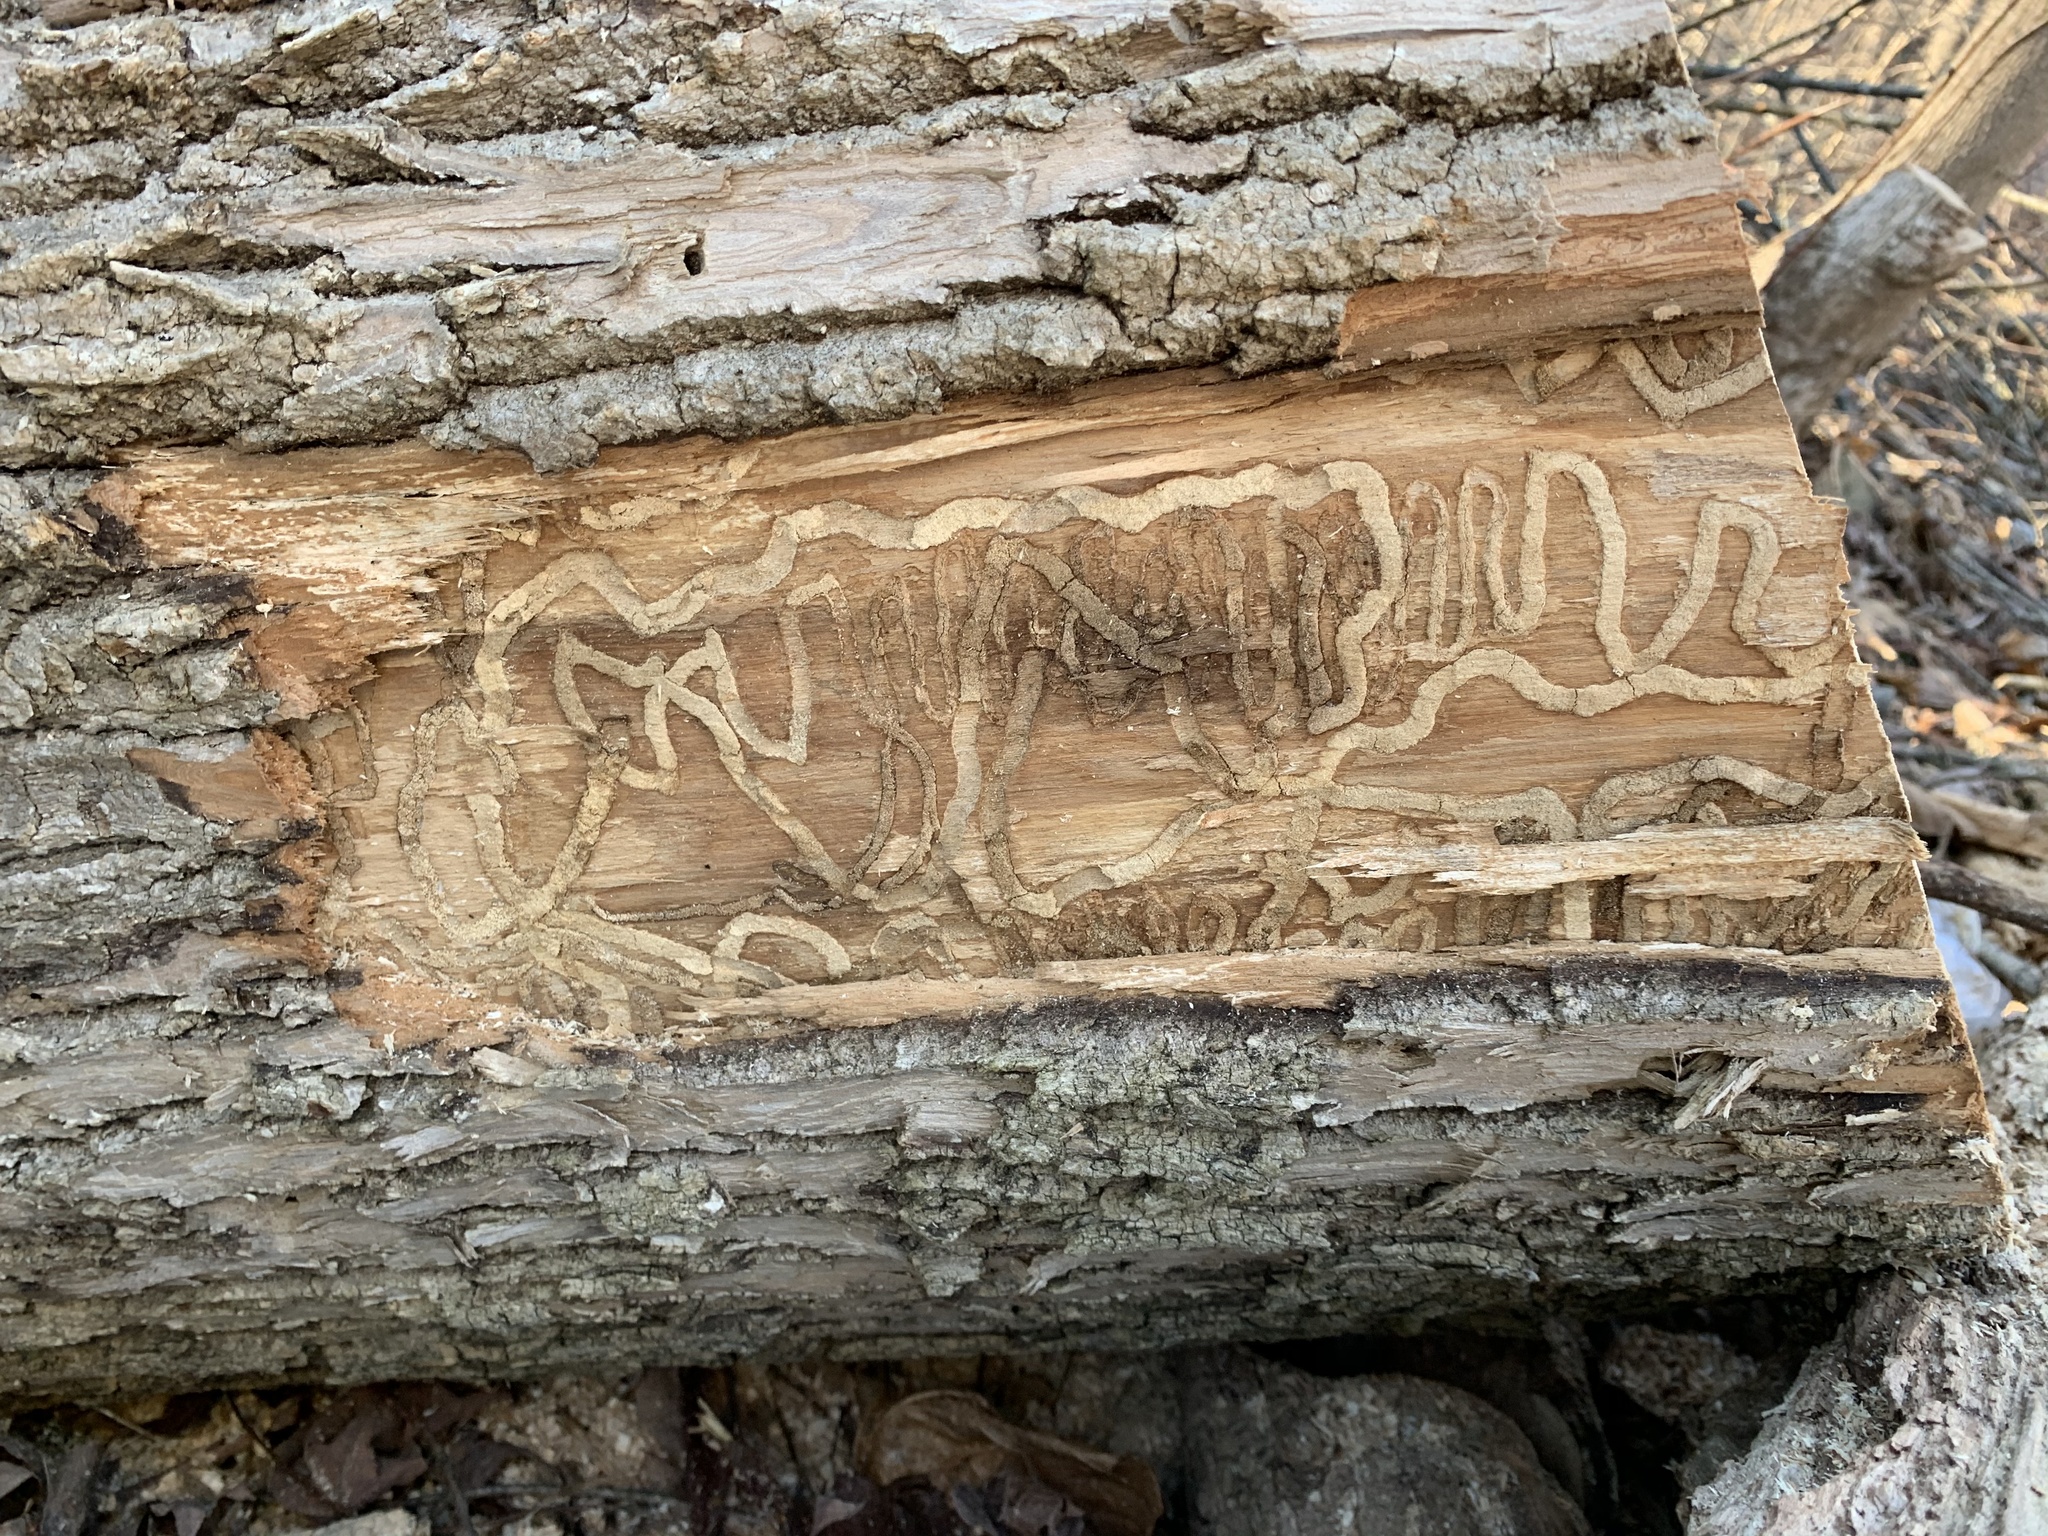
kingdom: Animalia
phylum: Arthropoda
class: Insecta
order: Coleoptera
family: Buprestidae
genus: Agrilus
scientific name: Agrilus planipennis
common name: Emerald ash borer
